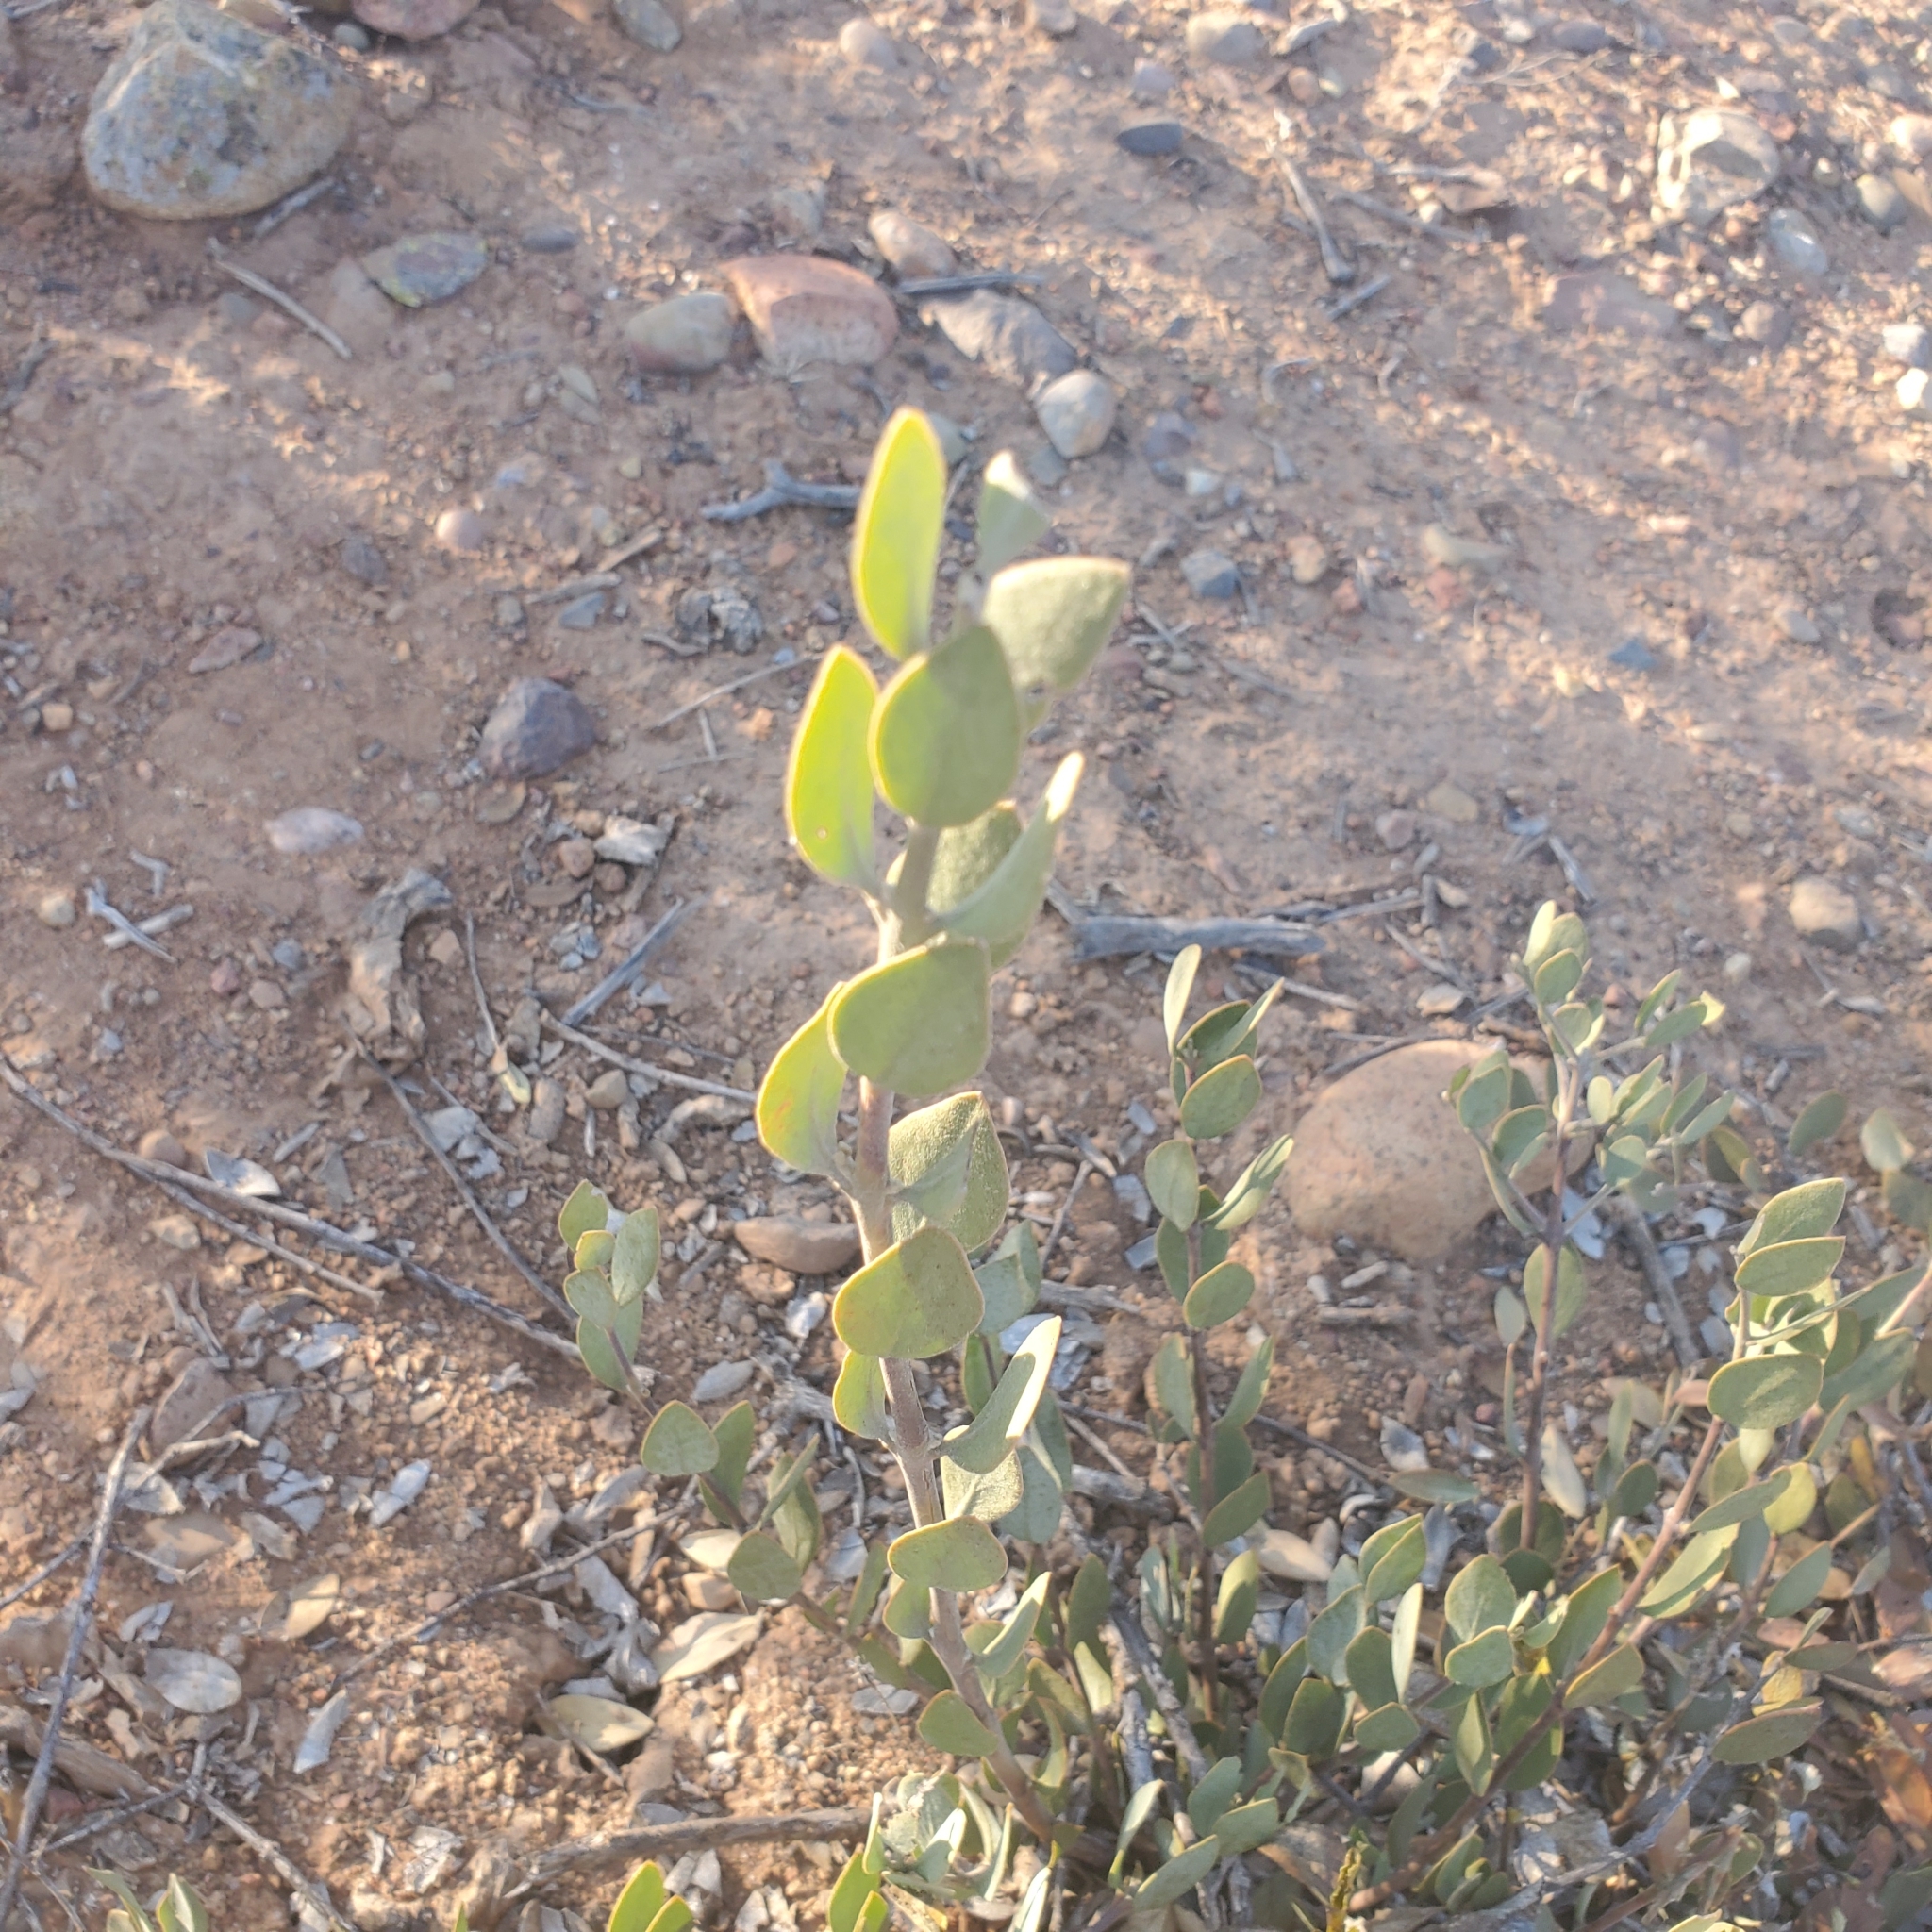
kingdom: Plantae
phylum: Tracheophyta
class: Magnoliopsida
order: Caryophyllales
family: Simmondsiaceae
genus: Simmondsia
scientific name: Simmondsia chinensis
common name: Jojoba
